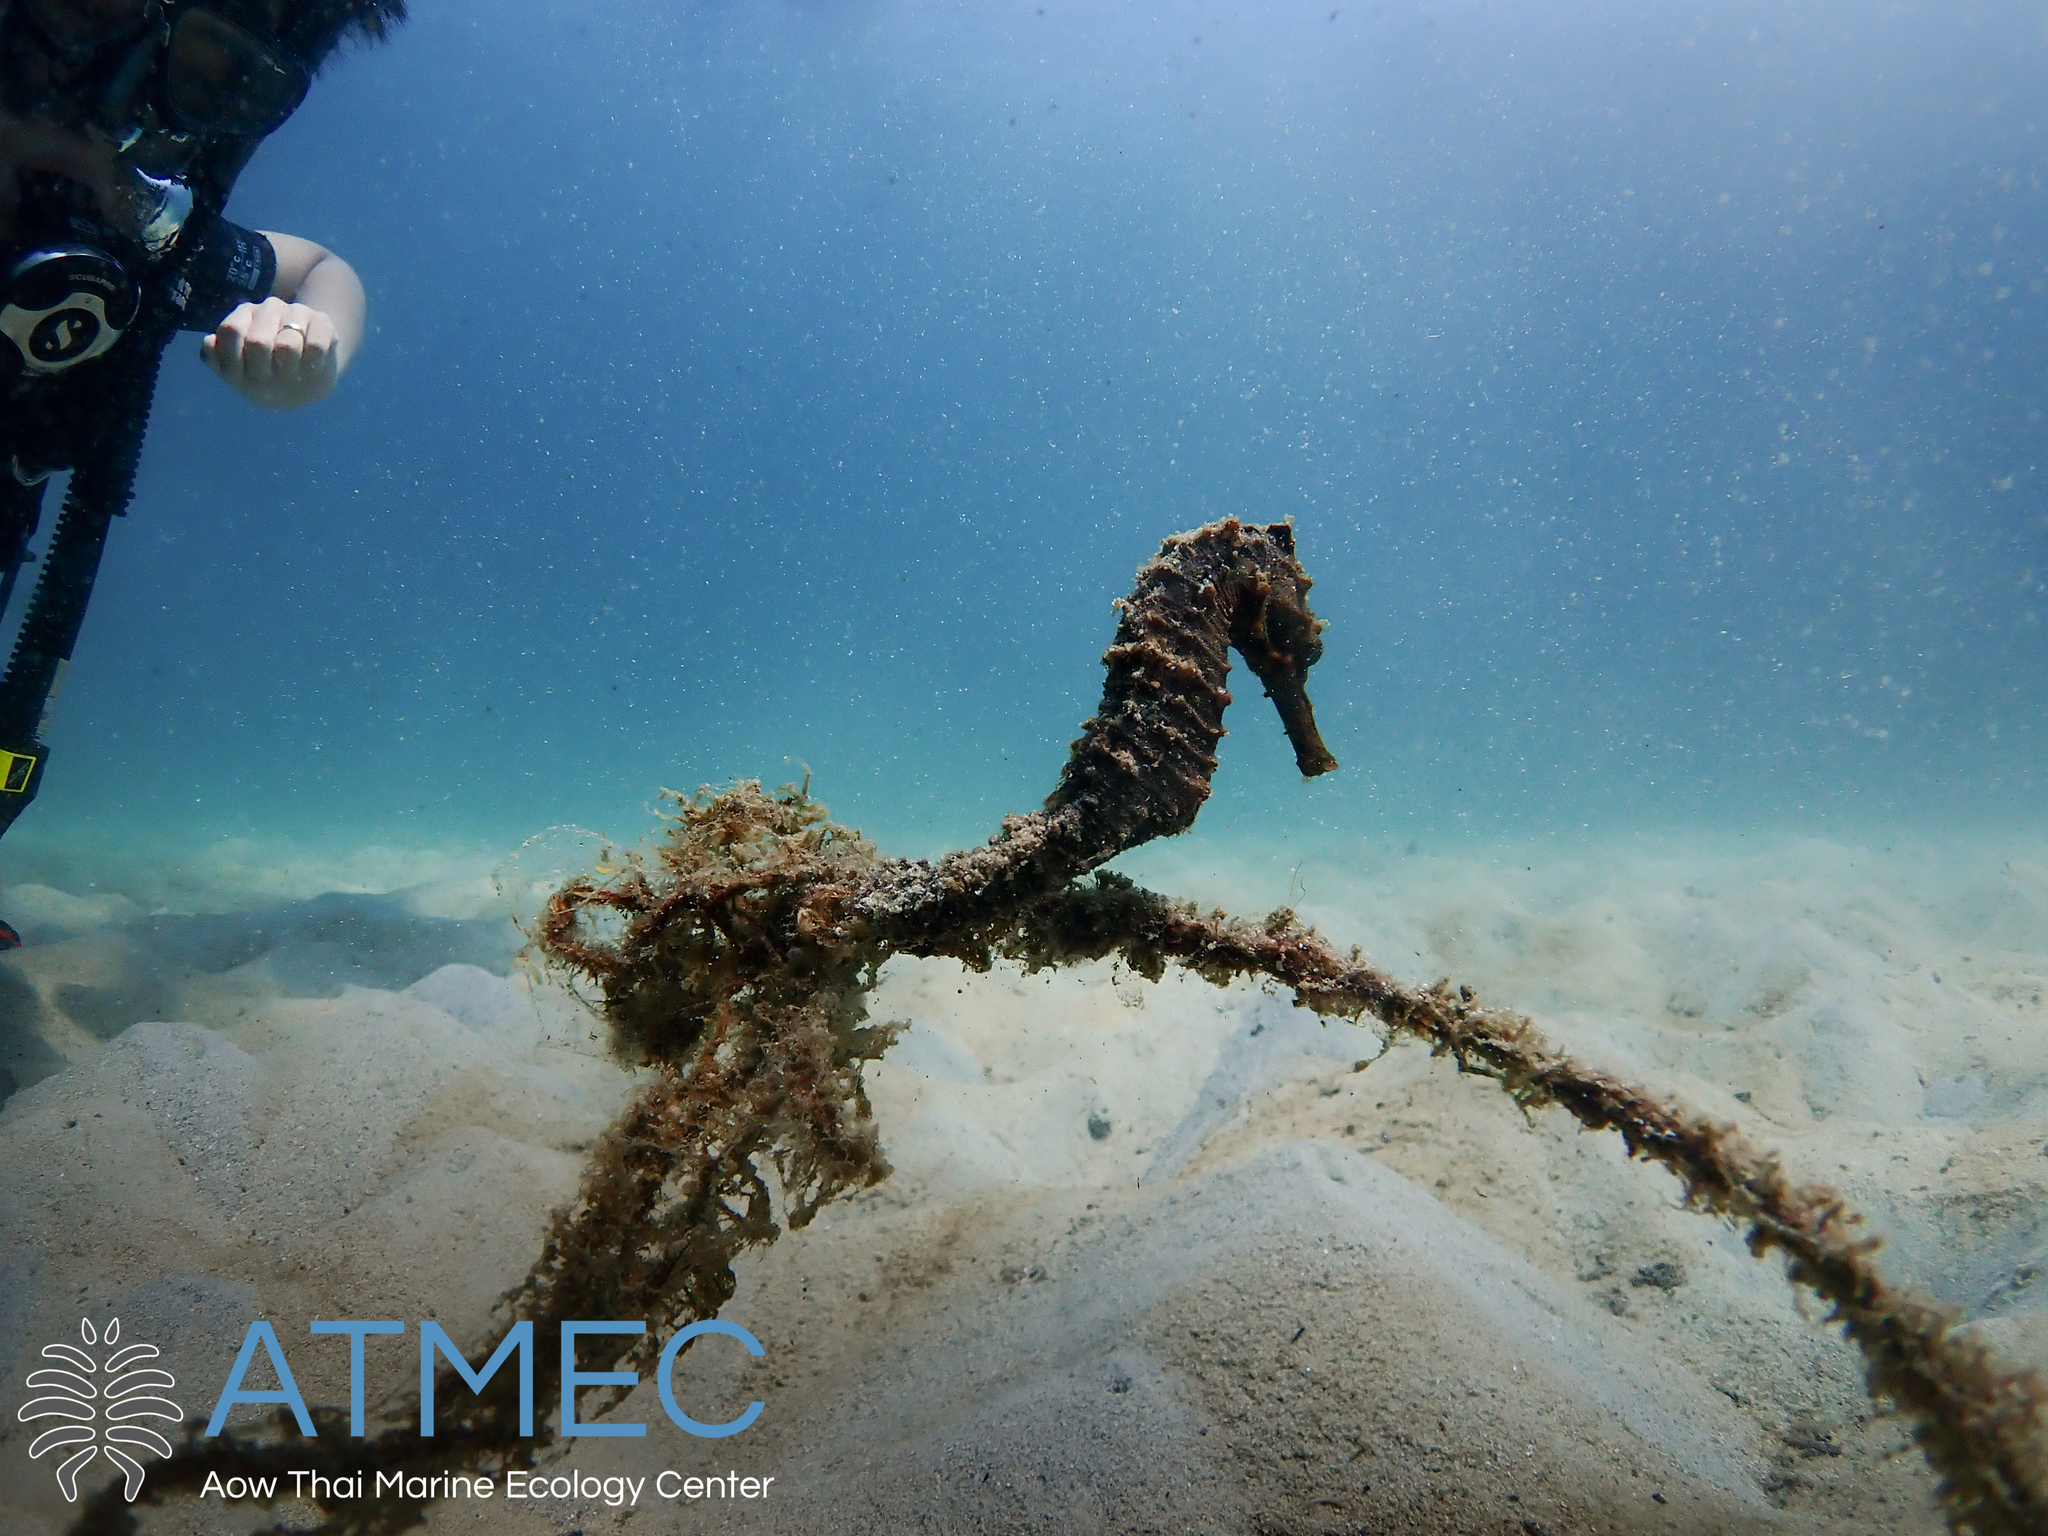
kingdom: Animalia
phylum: Chordata
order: Syngnathiformes
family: Syngnathidae
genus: Hippocampus
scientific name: Hippocampus kuda
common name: Spotted seahorse
